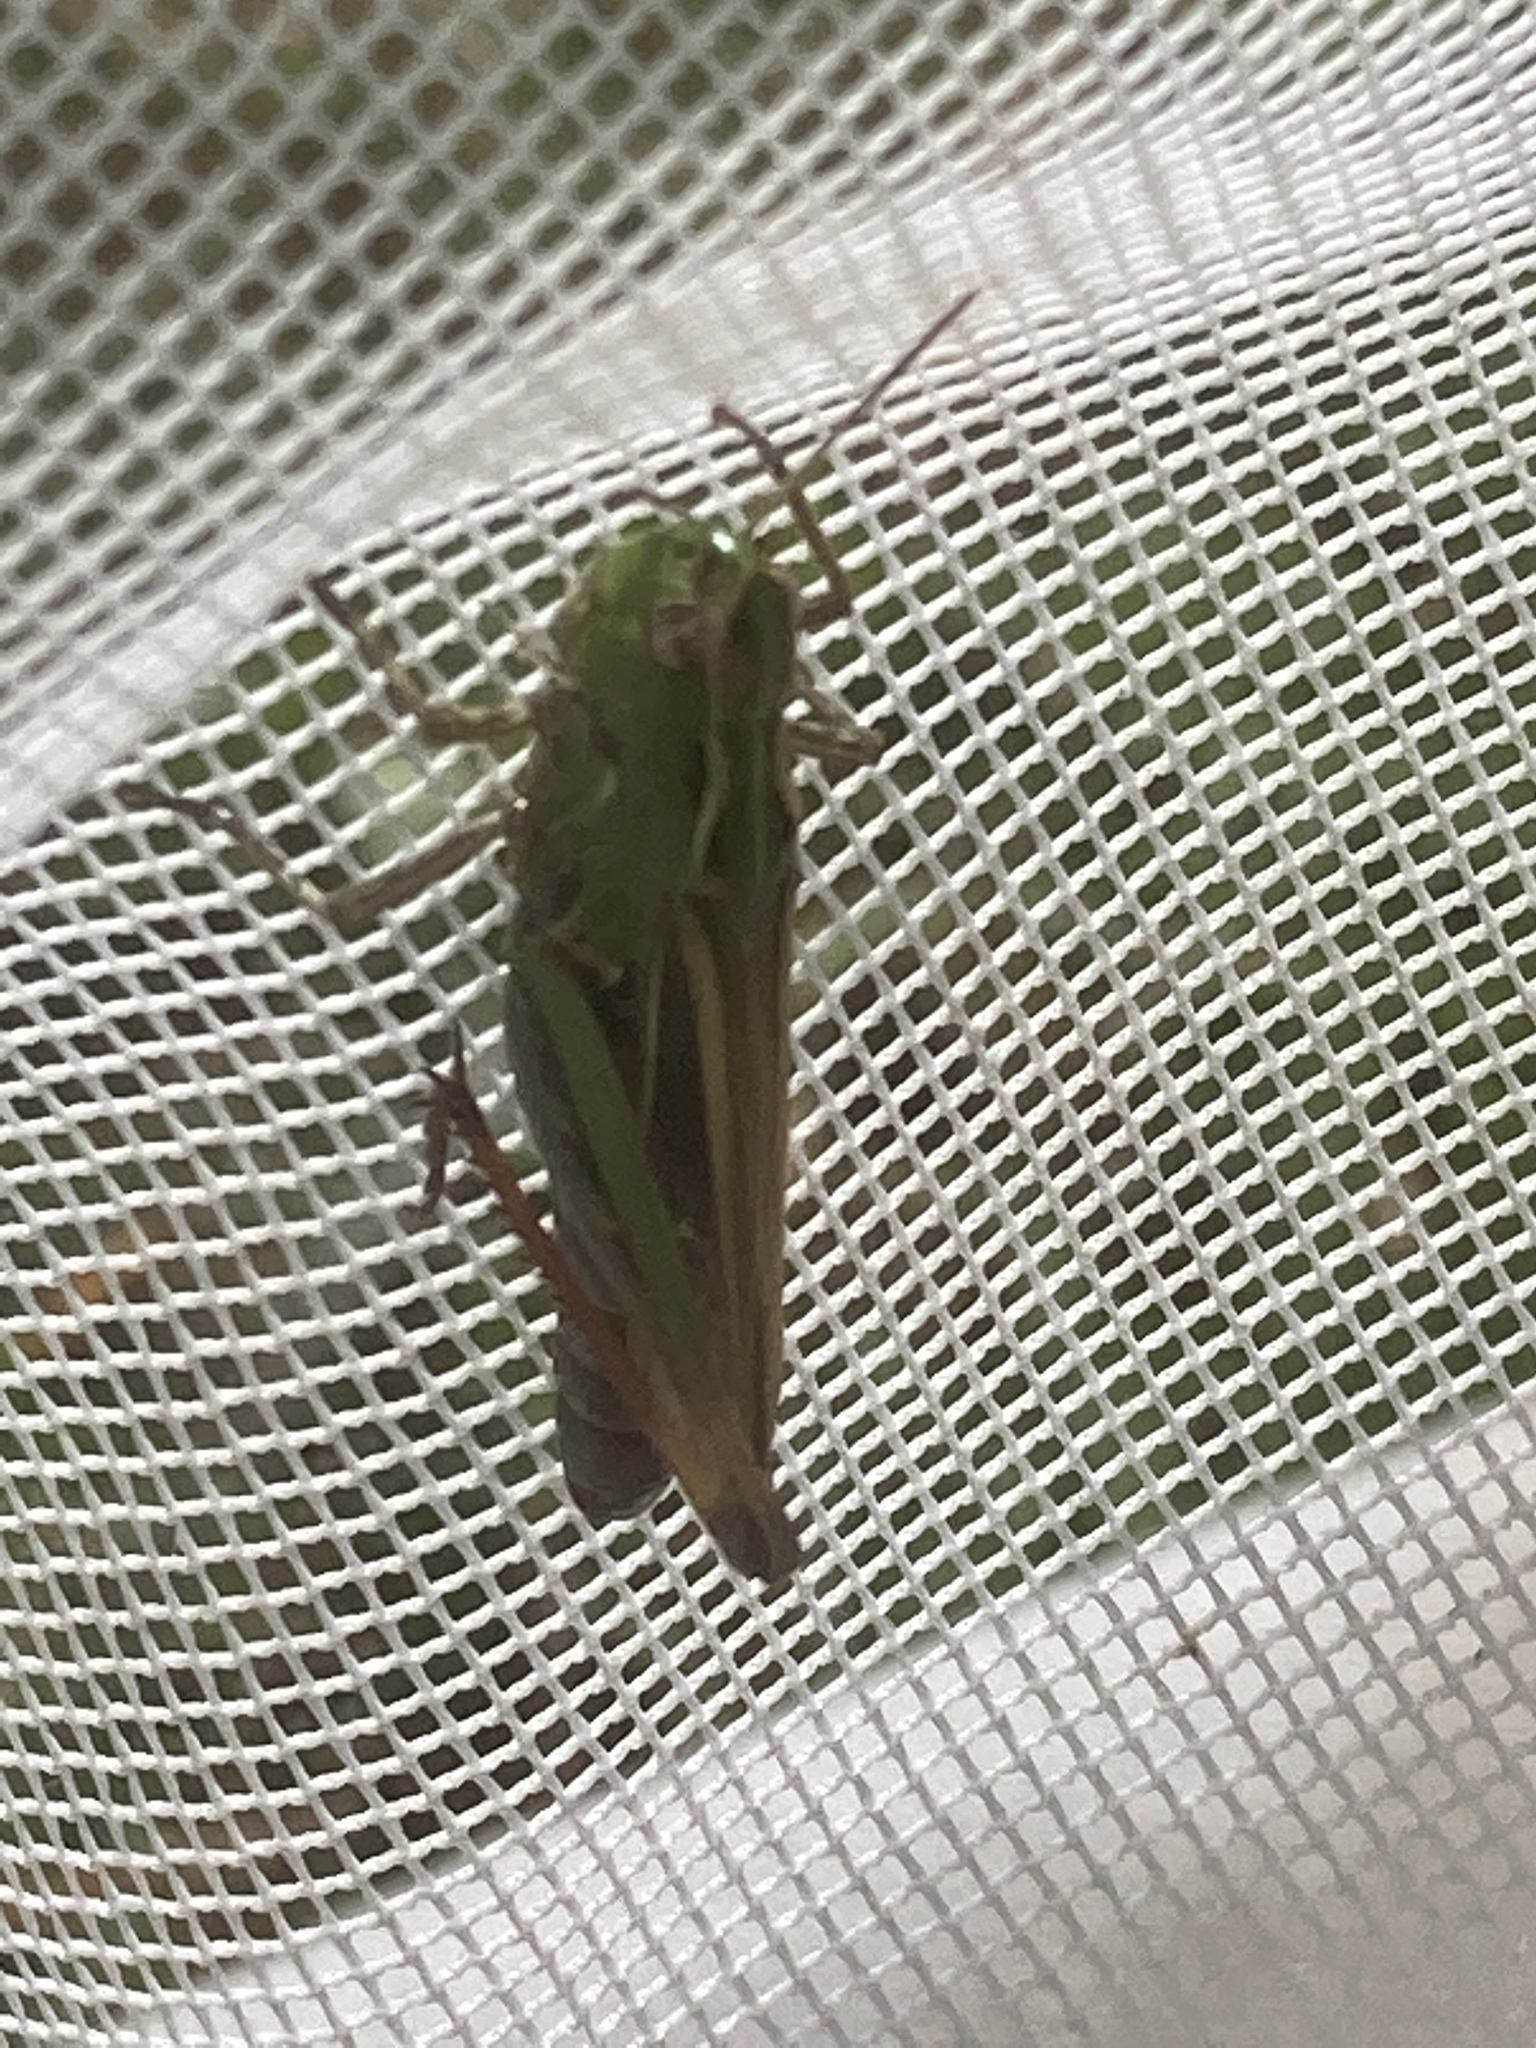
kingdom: Animalia
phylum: Arthropoda
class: Insecta
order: Orthoptera
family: Acrididae
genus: Stenobothrus
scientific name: Stenobothrus lineatus
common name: Stripe-winged grasshopper
